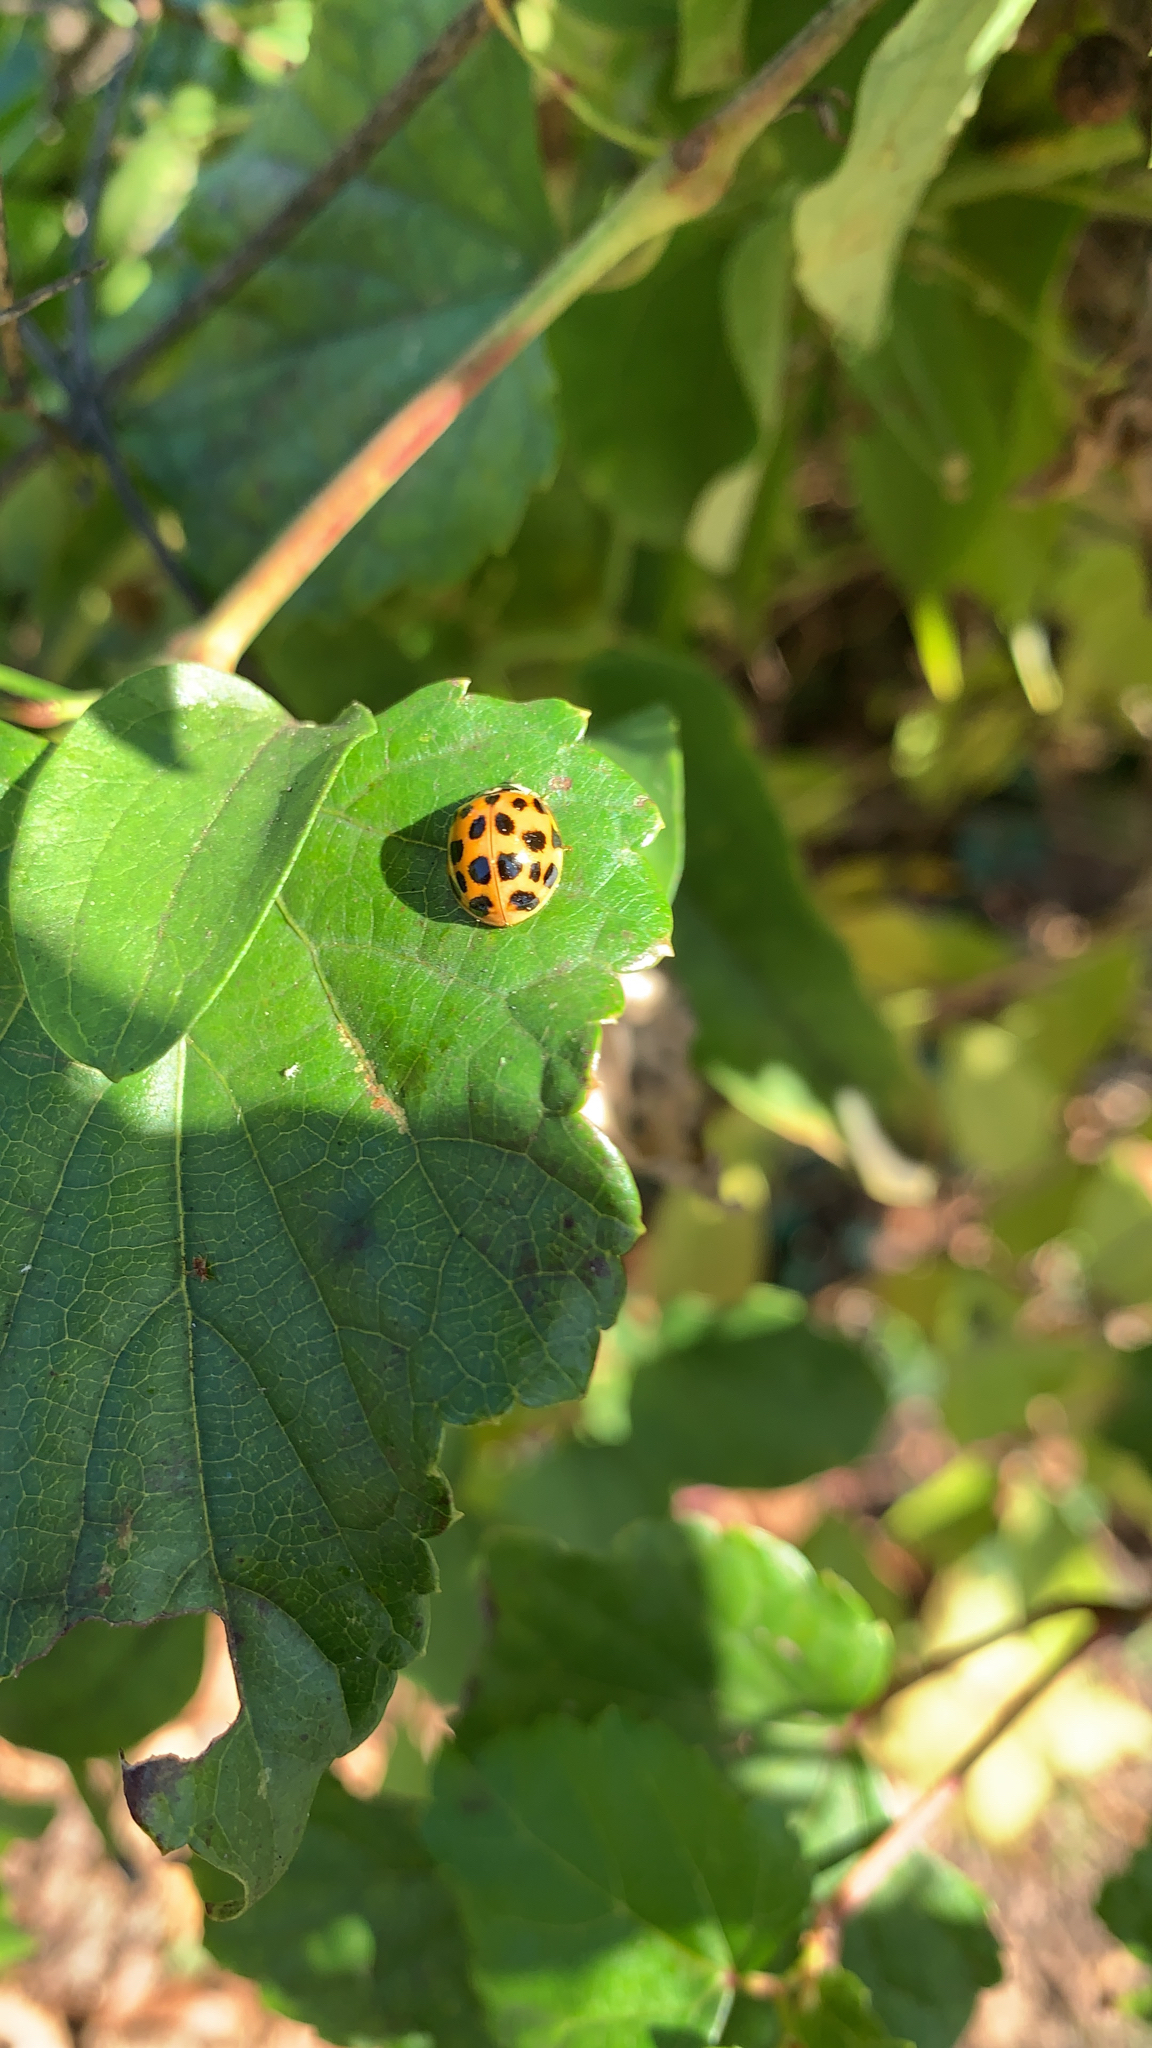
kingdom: Animalia
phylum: Arthropoda
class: Insecta
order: Coleoptera
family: Coccinellidae
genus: Harmonia
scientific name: Harmonia axyridis
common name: Harlequin ladybird
